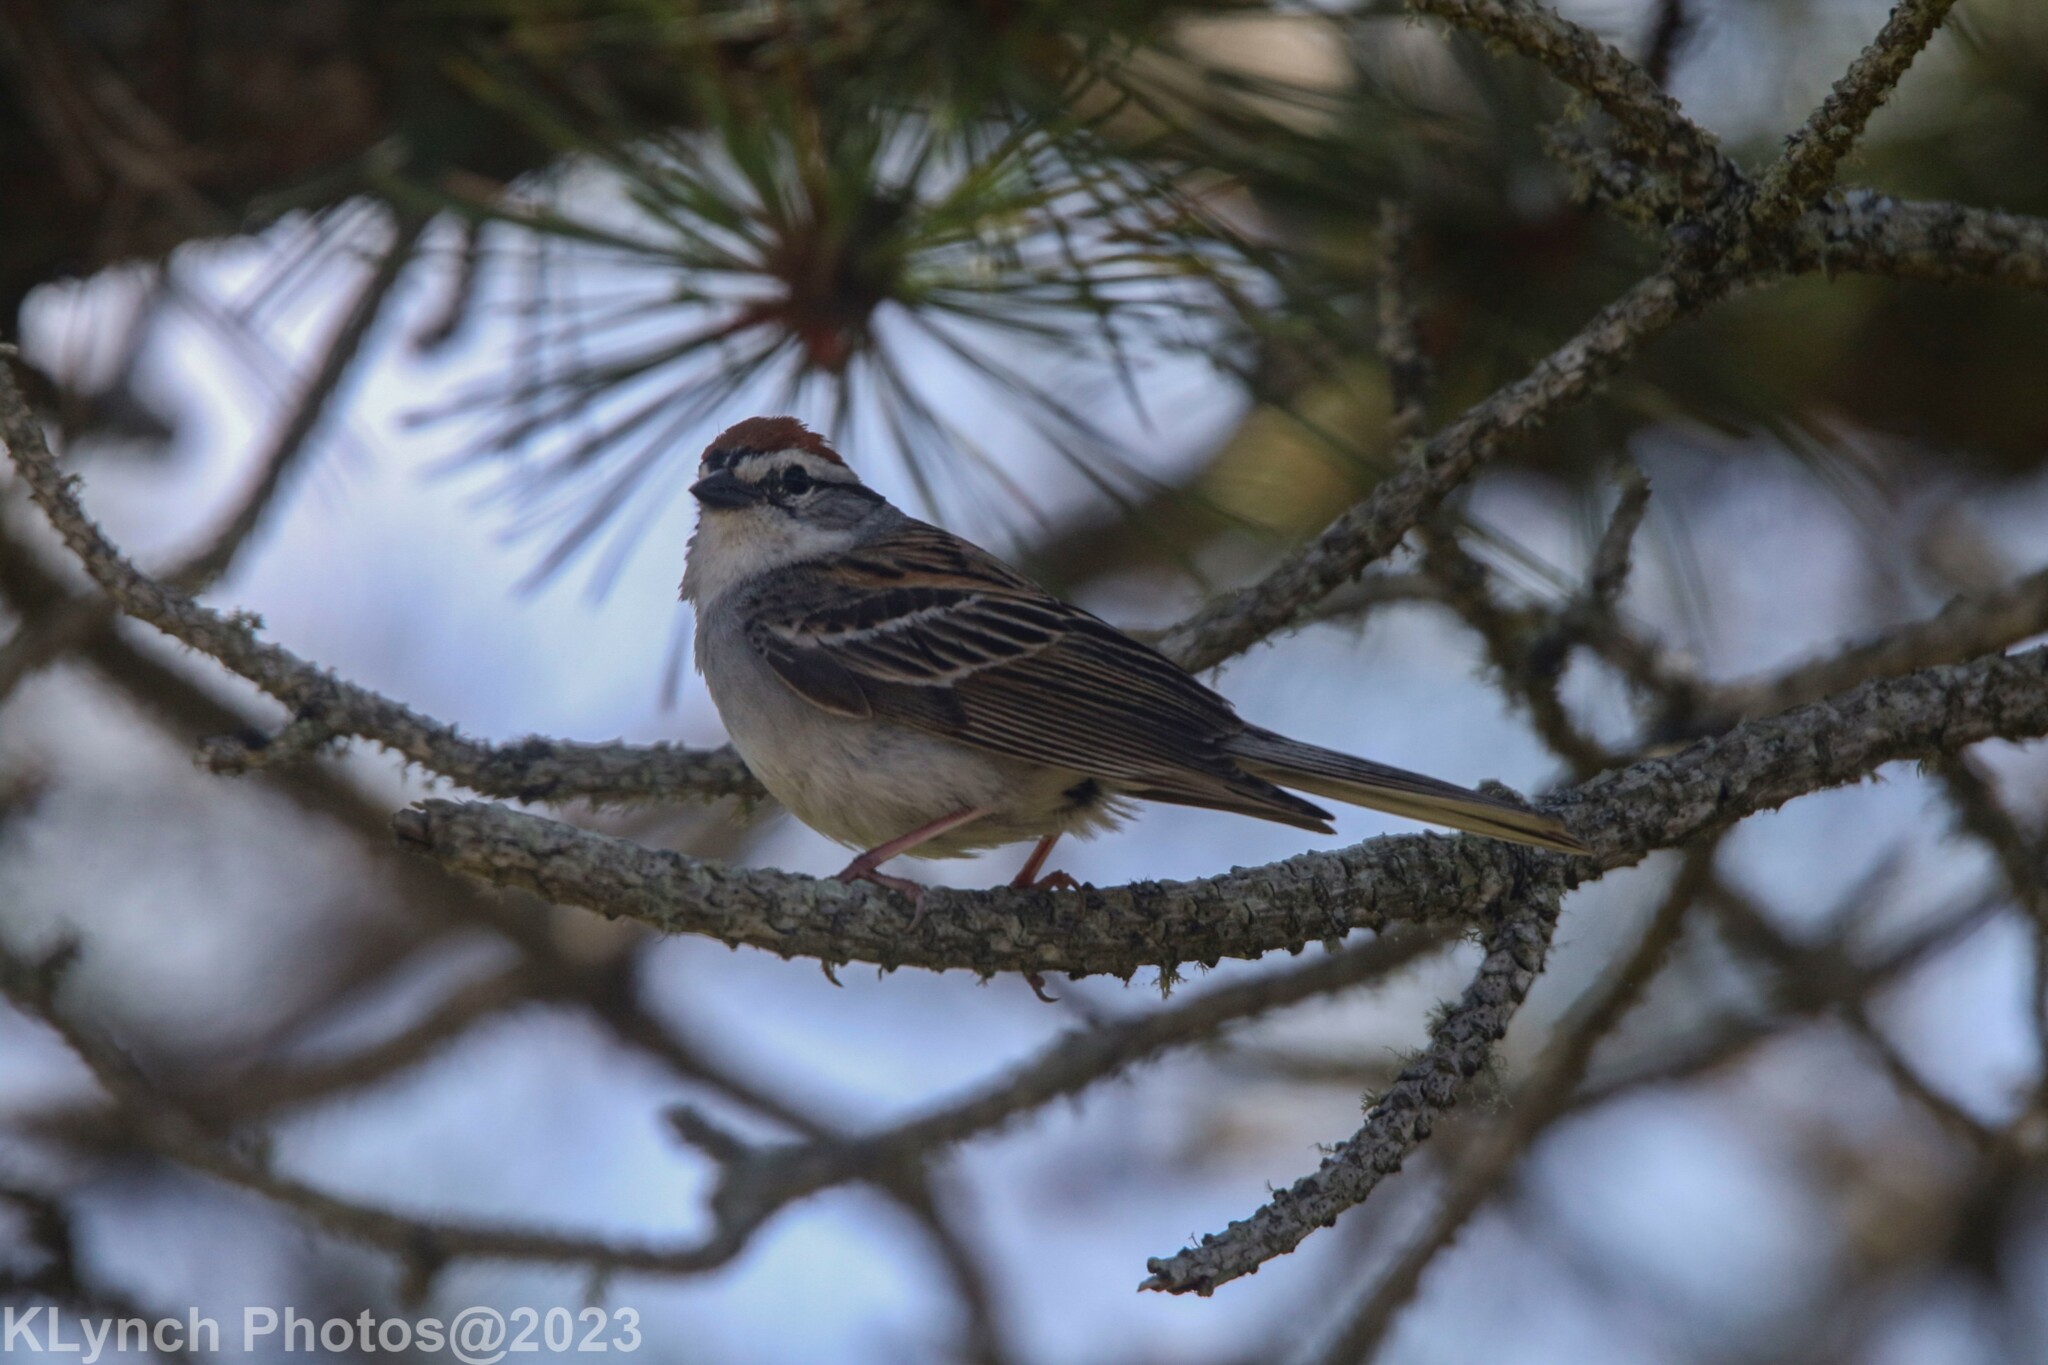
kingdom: Animalia
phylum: Chordata
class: Aves
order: Passeriformes
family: Passerellidae
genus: Spizella
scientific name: Spizella passerina
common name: Chipping sparrow
